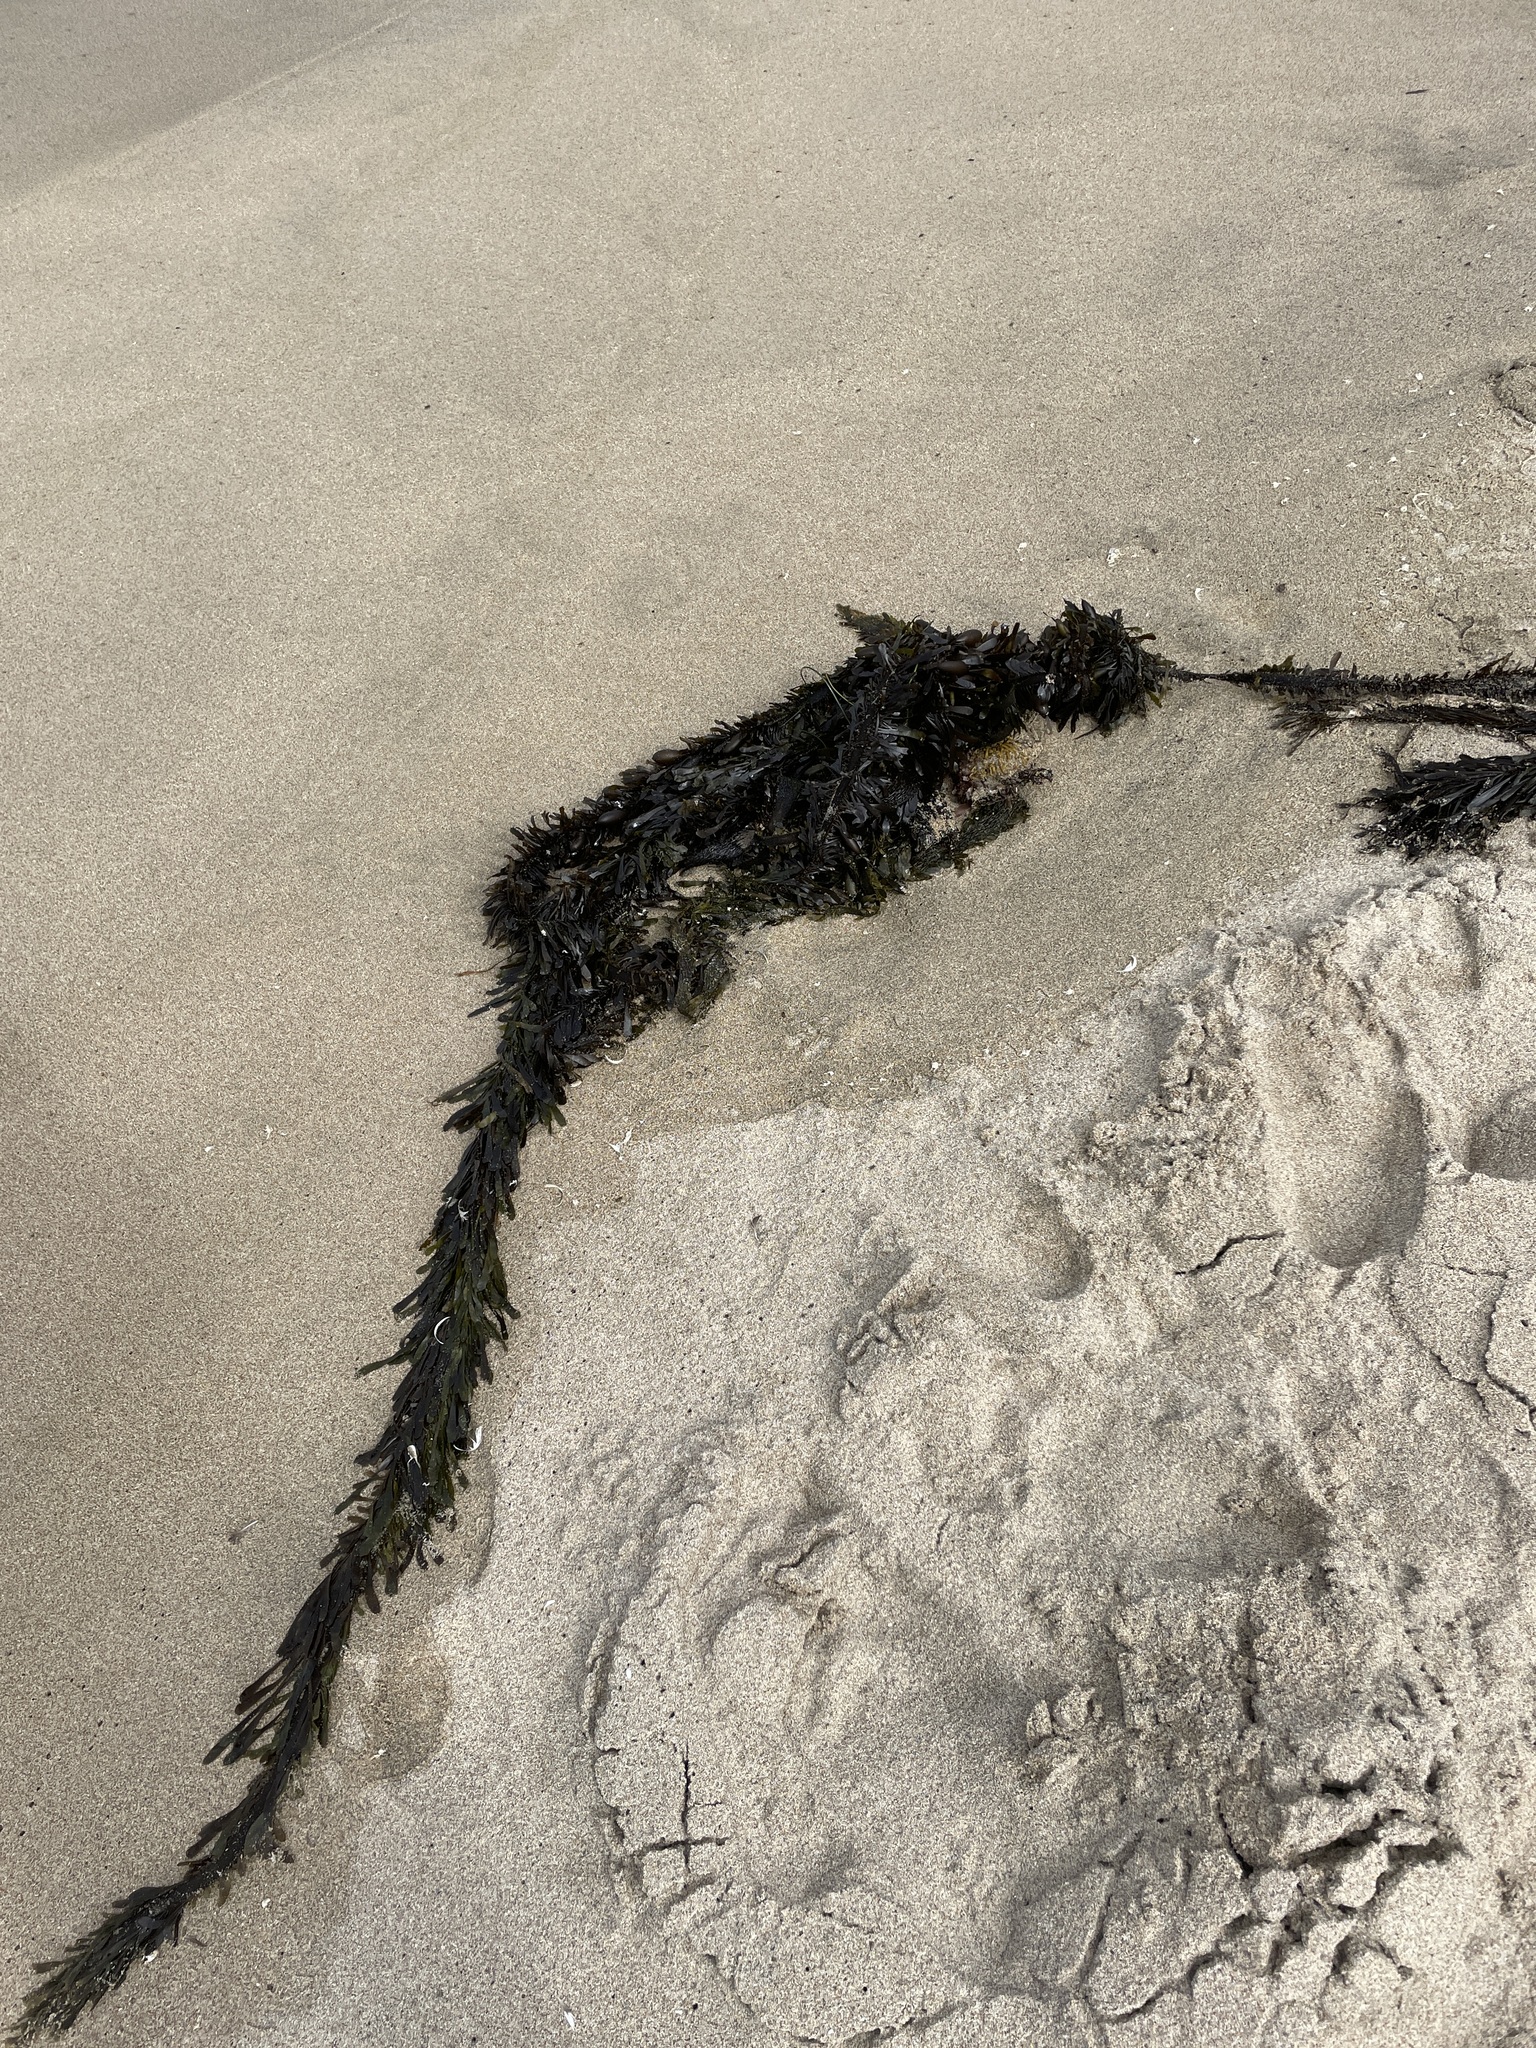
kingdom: Chromista
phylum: Ochrophyta
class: Phaeophyceae
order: Laminariales
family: Lessoniaceae
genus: Egregia
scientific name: Egregia menziesii
